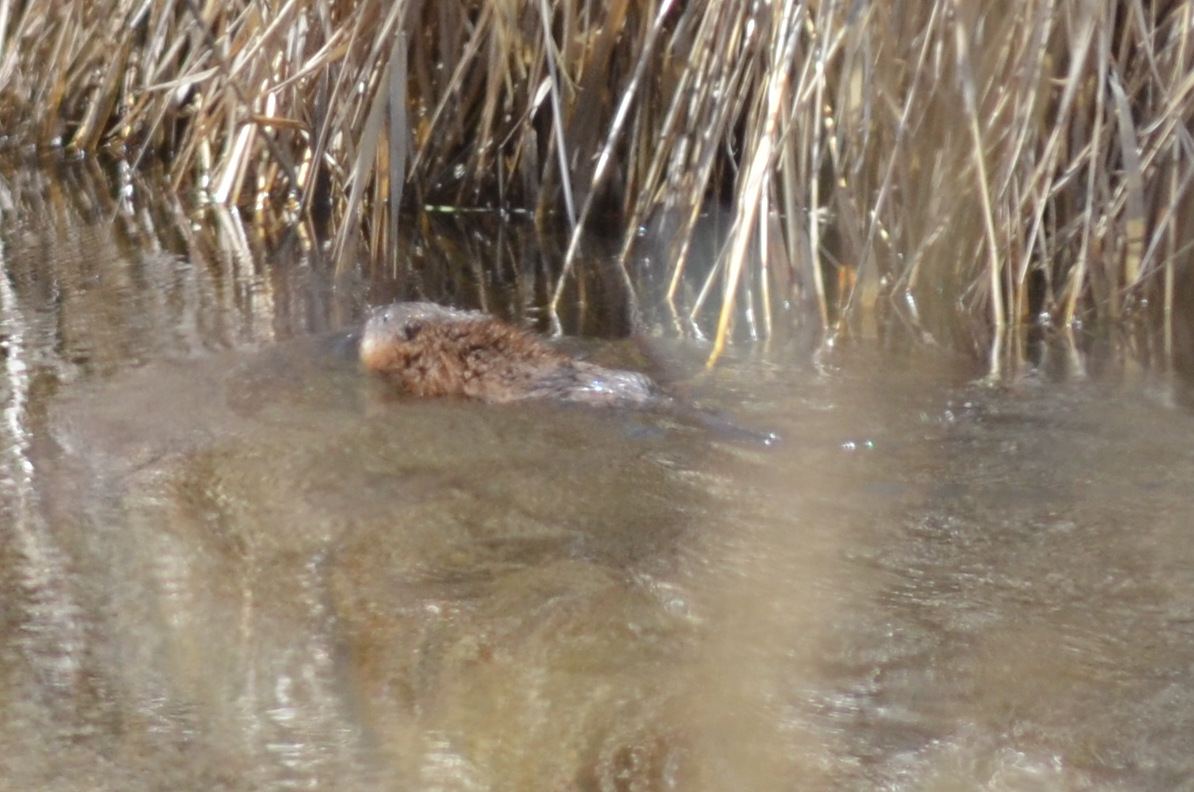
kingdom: Animalia
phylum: Chordata
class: Mammalia
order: Rodentia
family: Cricetidae
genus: Ondatra
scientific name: Ondatra zibethicus
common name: Muskrat
